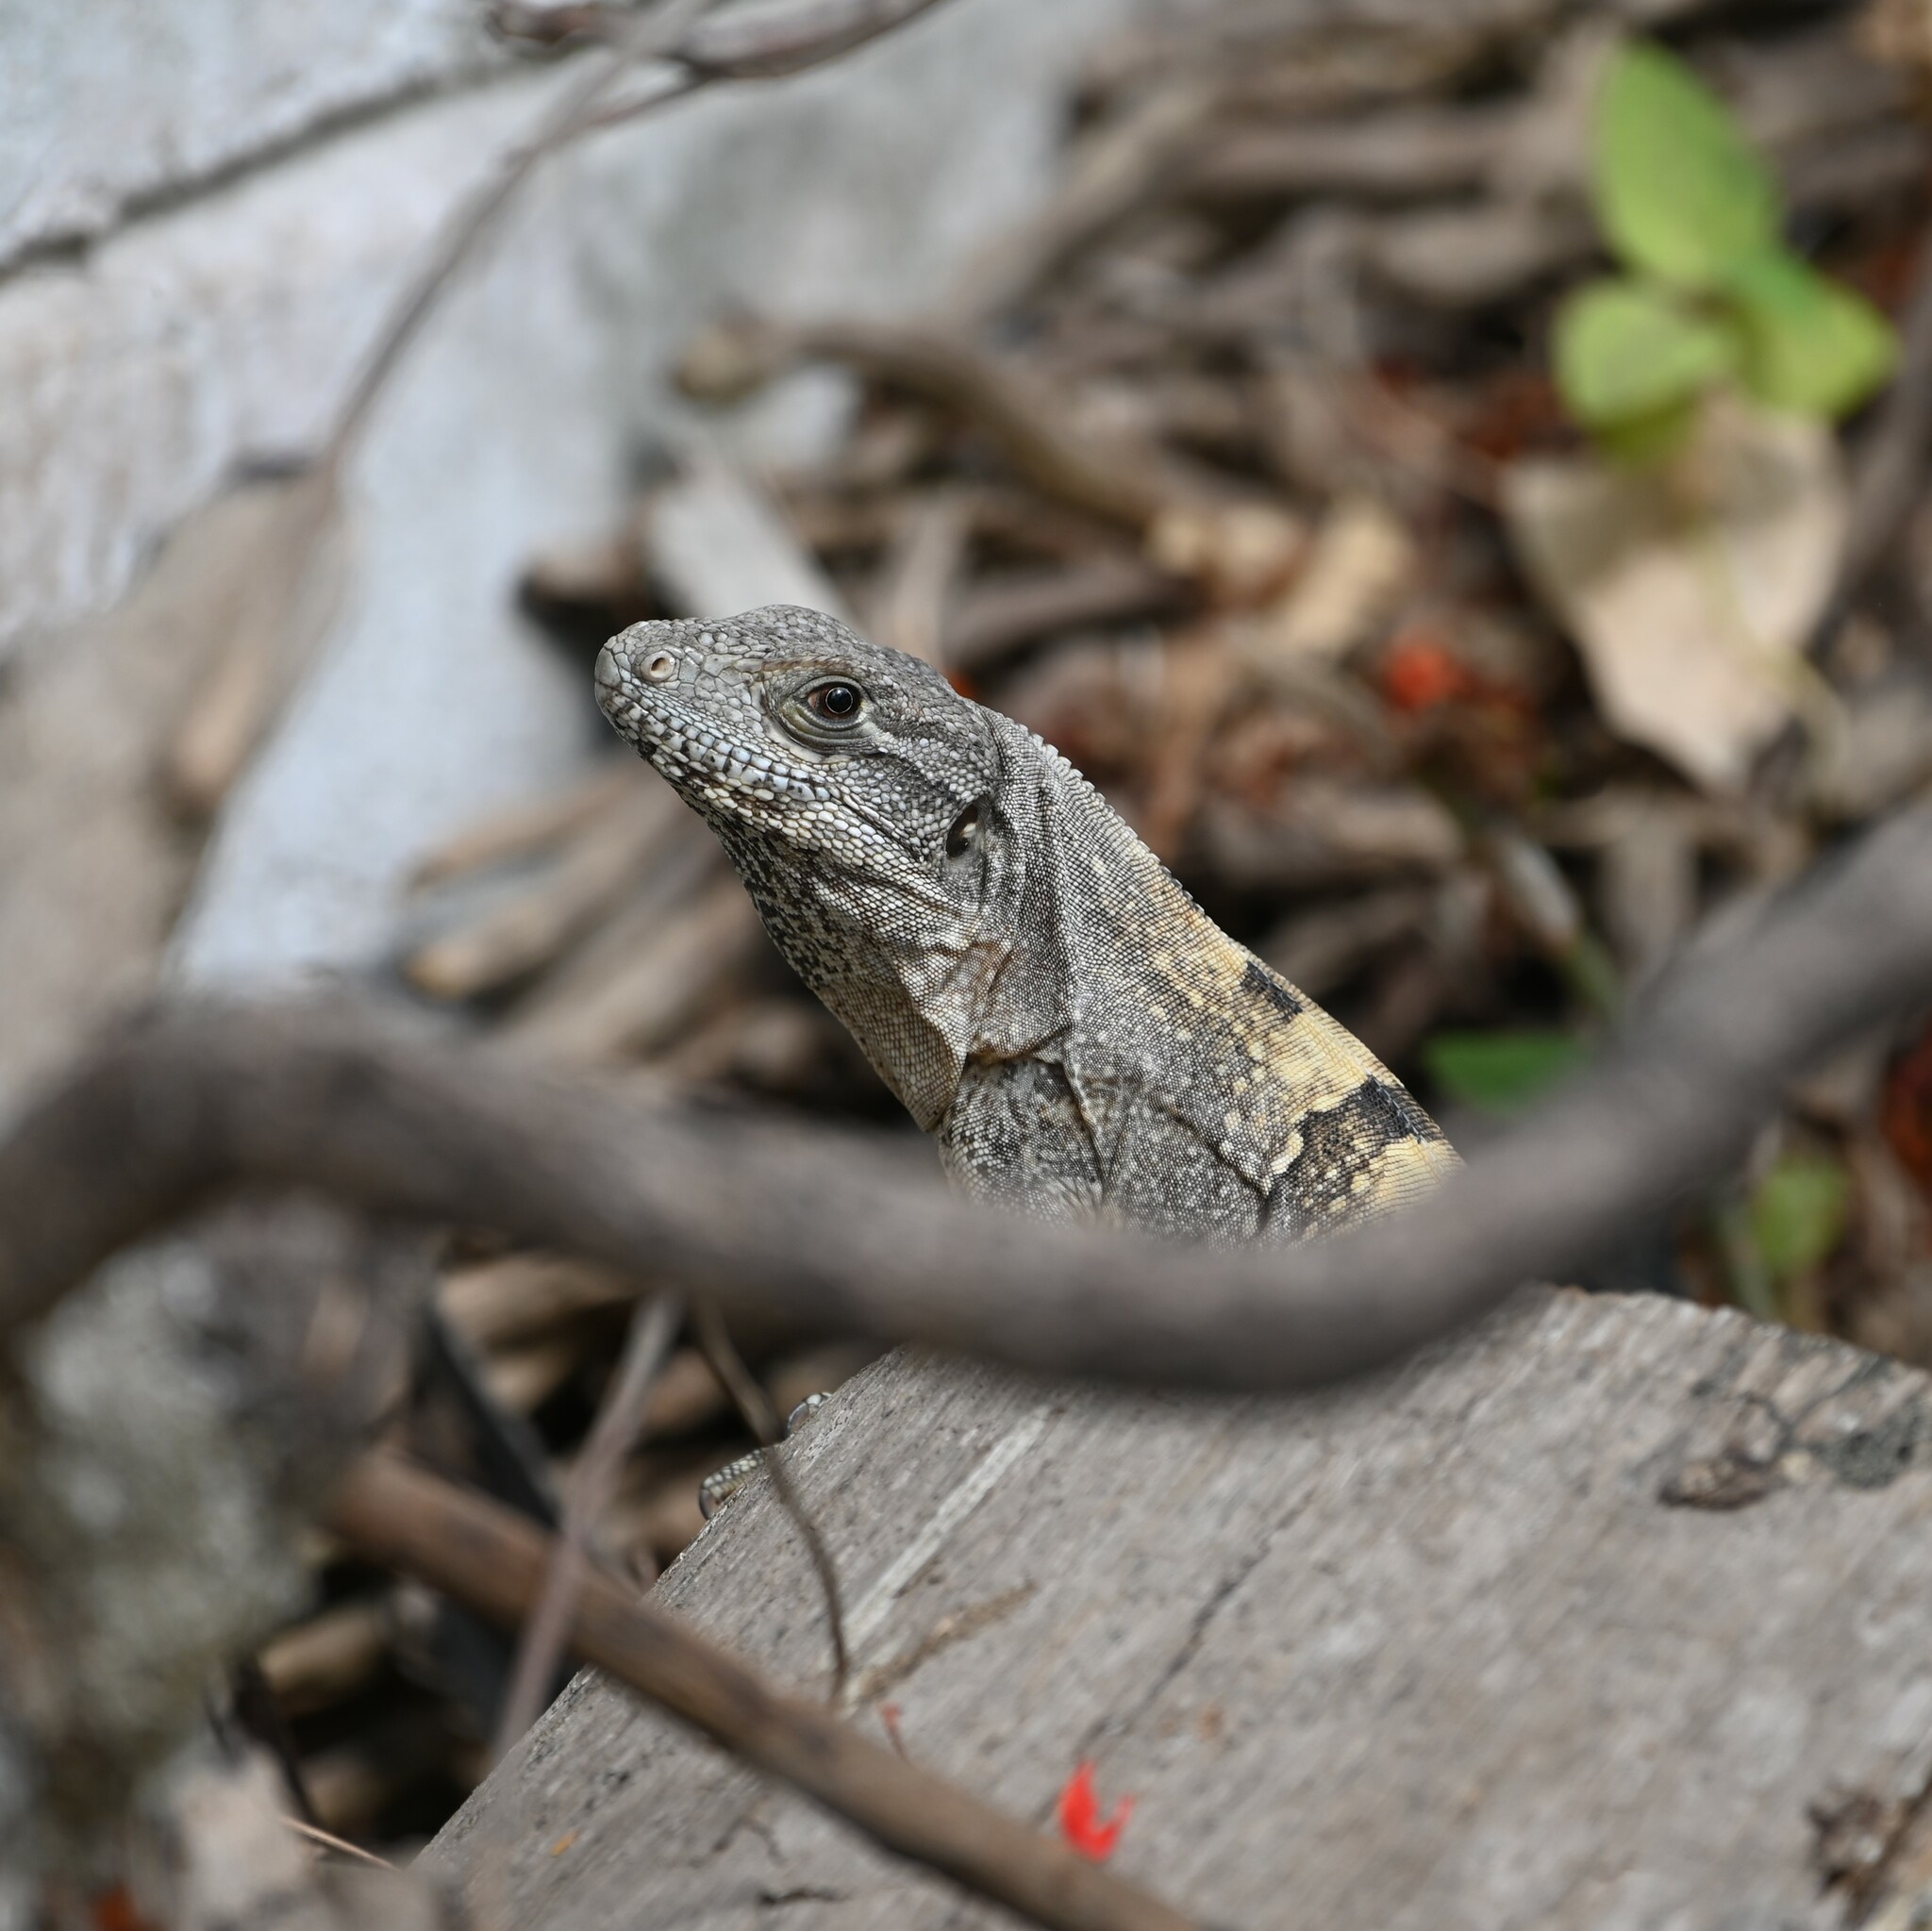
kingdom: Animalia
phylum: Chordata
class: Squamata
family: Iguanidae
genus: Ctenosaura
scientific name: Ctenosaura similis
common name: Black spiny-tailed iguana
